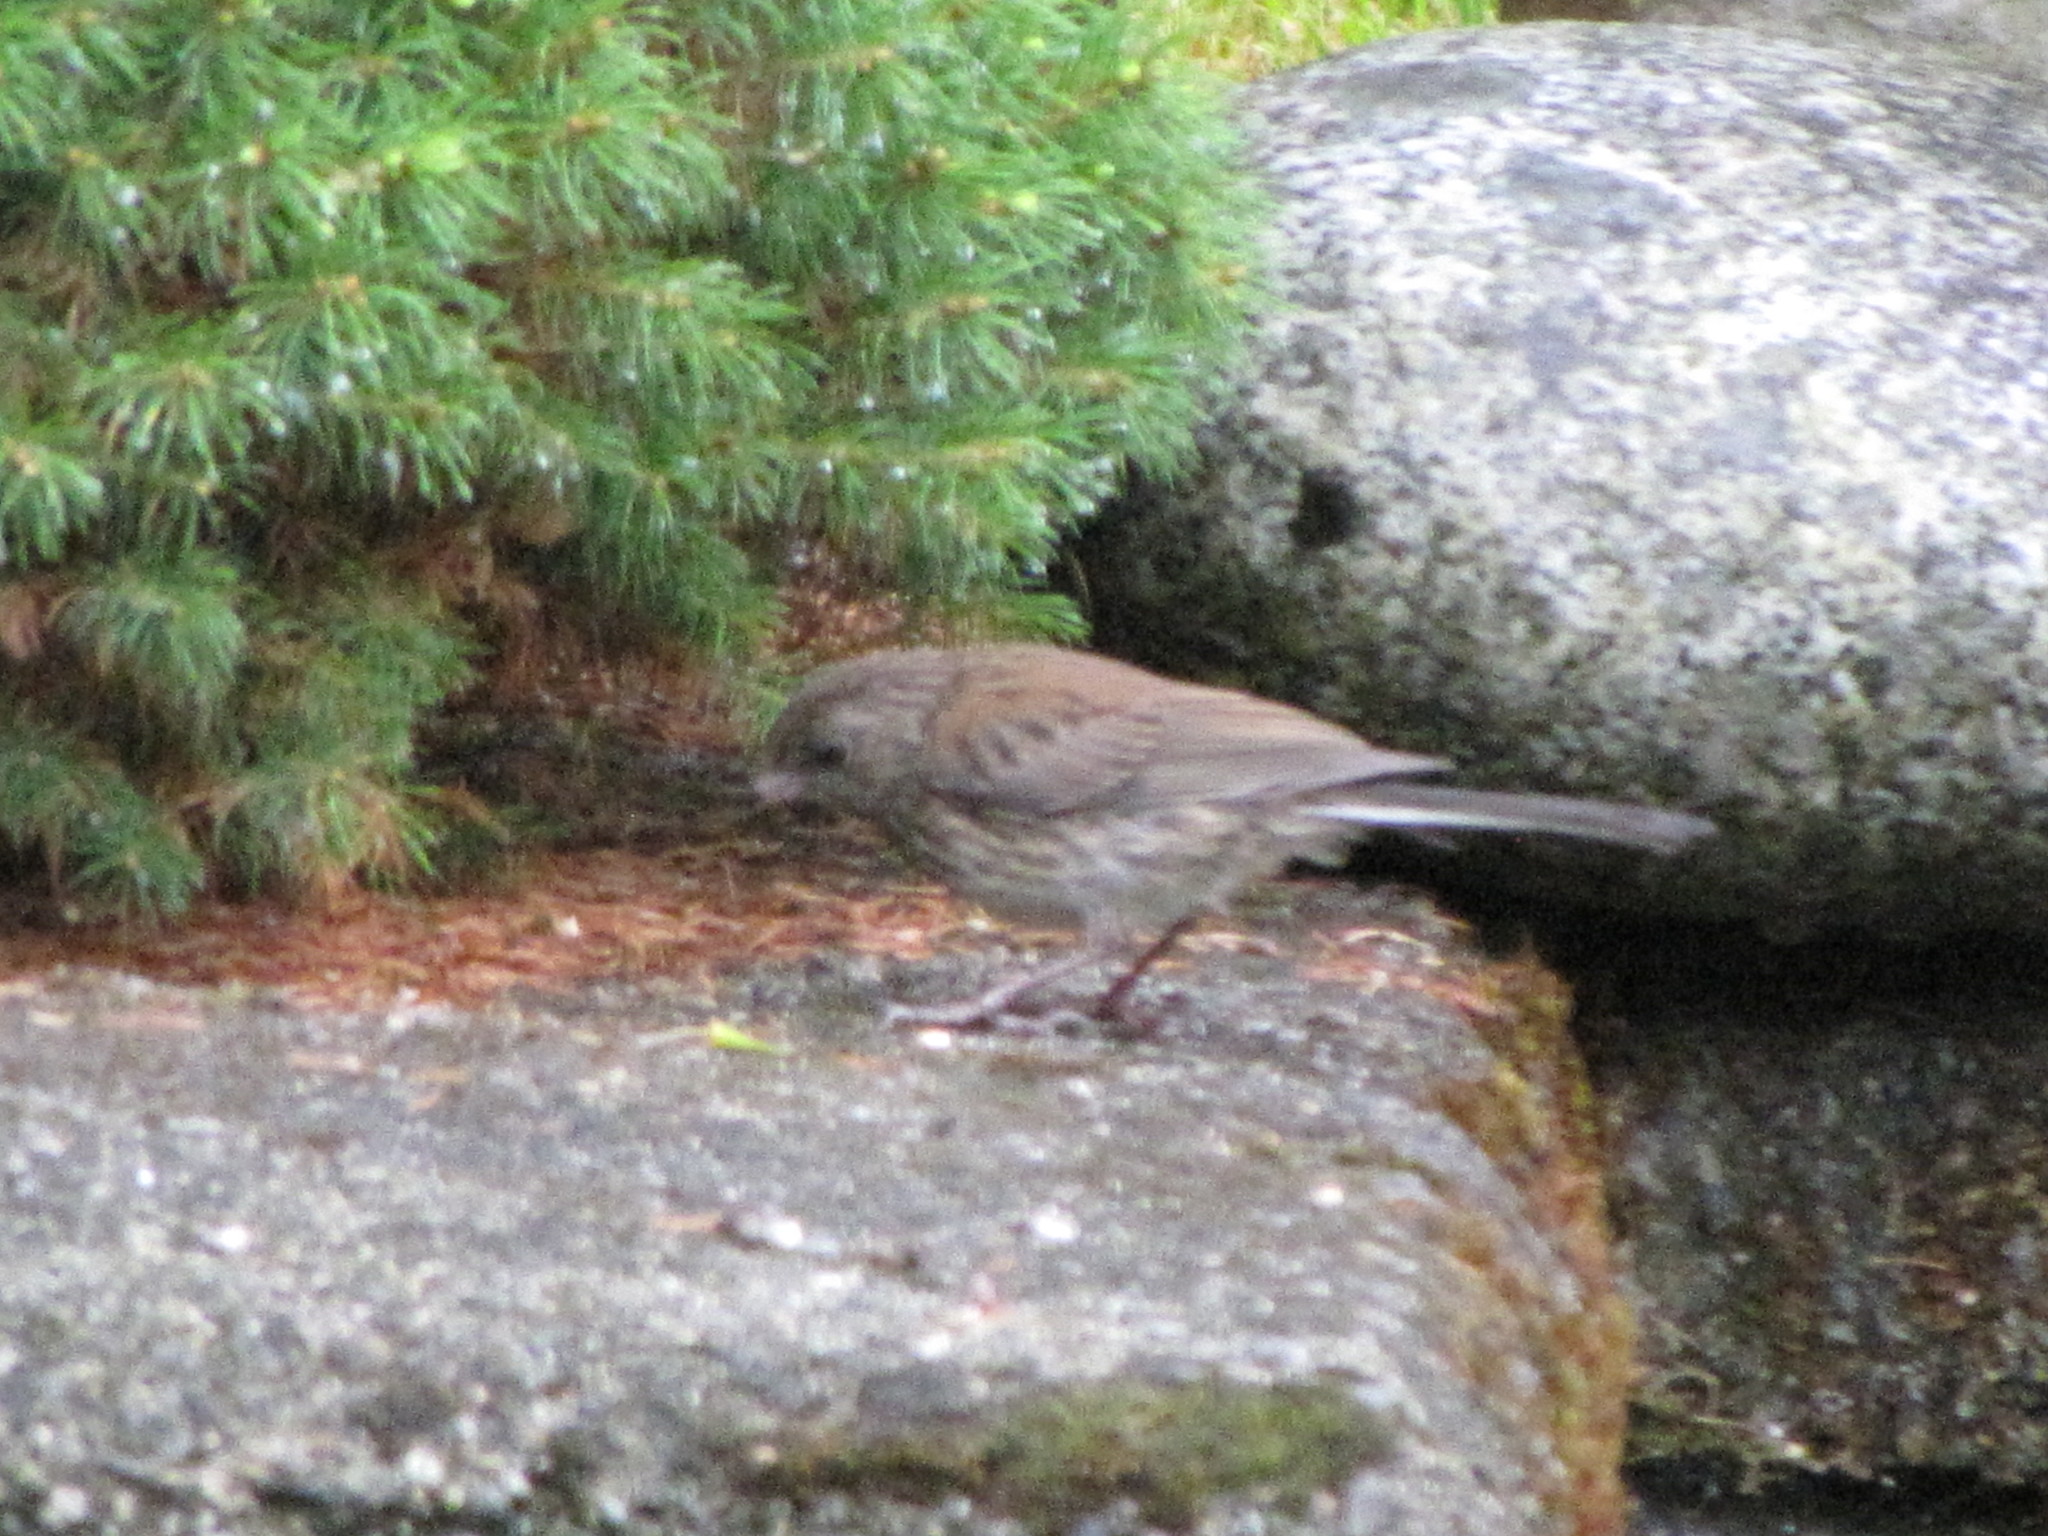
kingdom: Animalia
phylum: Chordata
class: Aves
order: Passeriformes
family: Passerellidae
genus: Junco
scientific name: Junco hyemalis
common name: Dark-eyed junco
